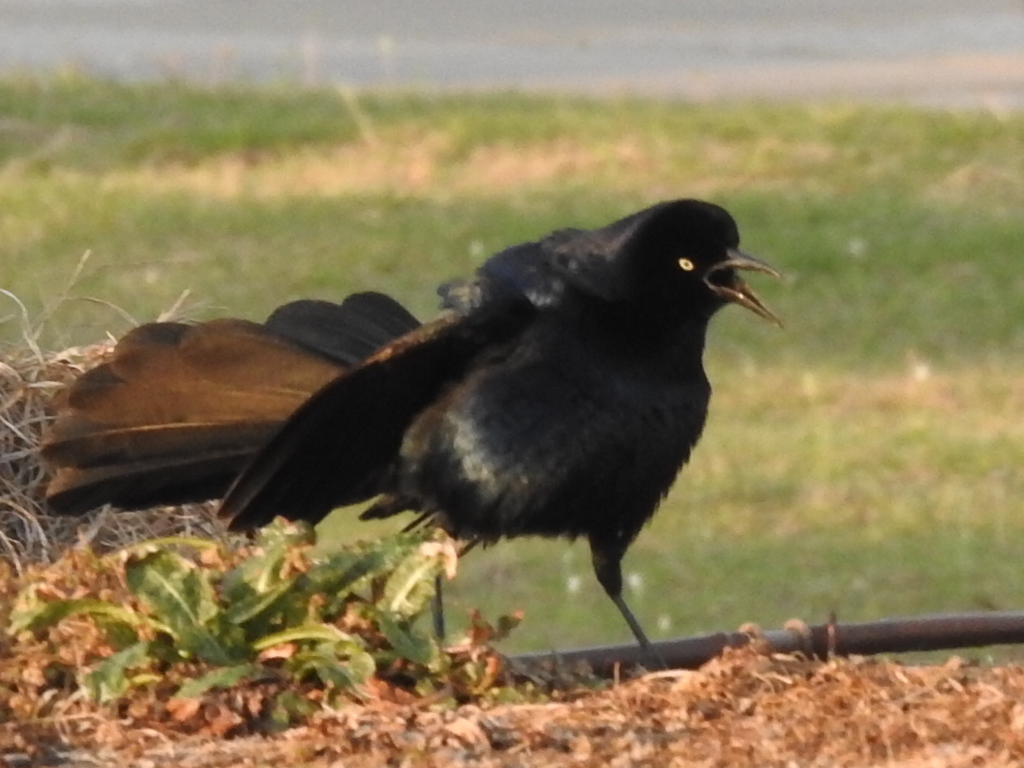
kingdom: Animalia
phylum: Chordata
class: Aves
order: Passeriformes
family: Icteridae
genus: Quiscalus
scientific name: Quiscalus mexicanus
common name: Great-tailed grackle
